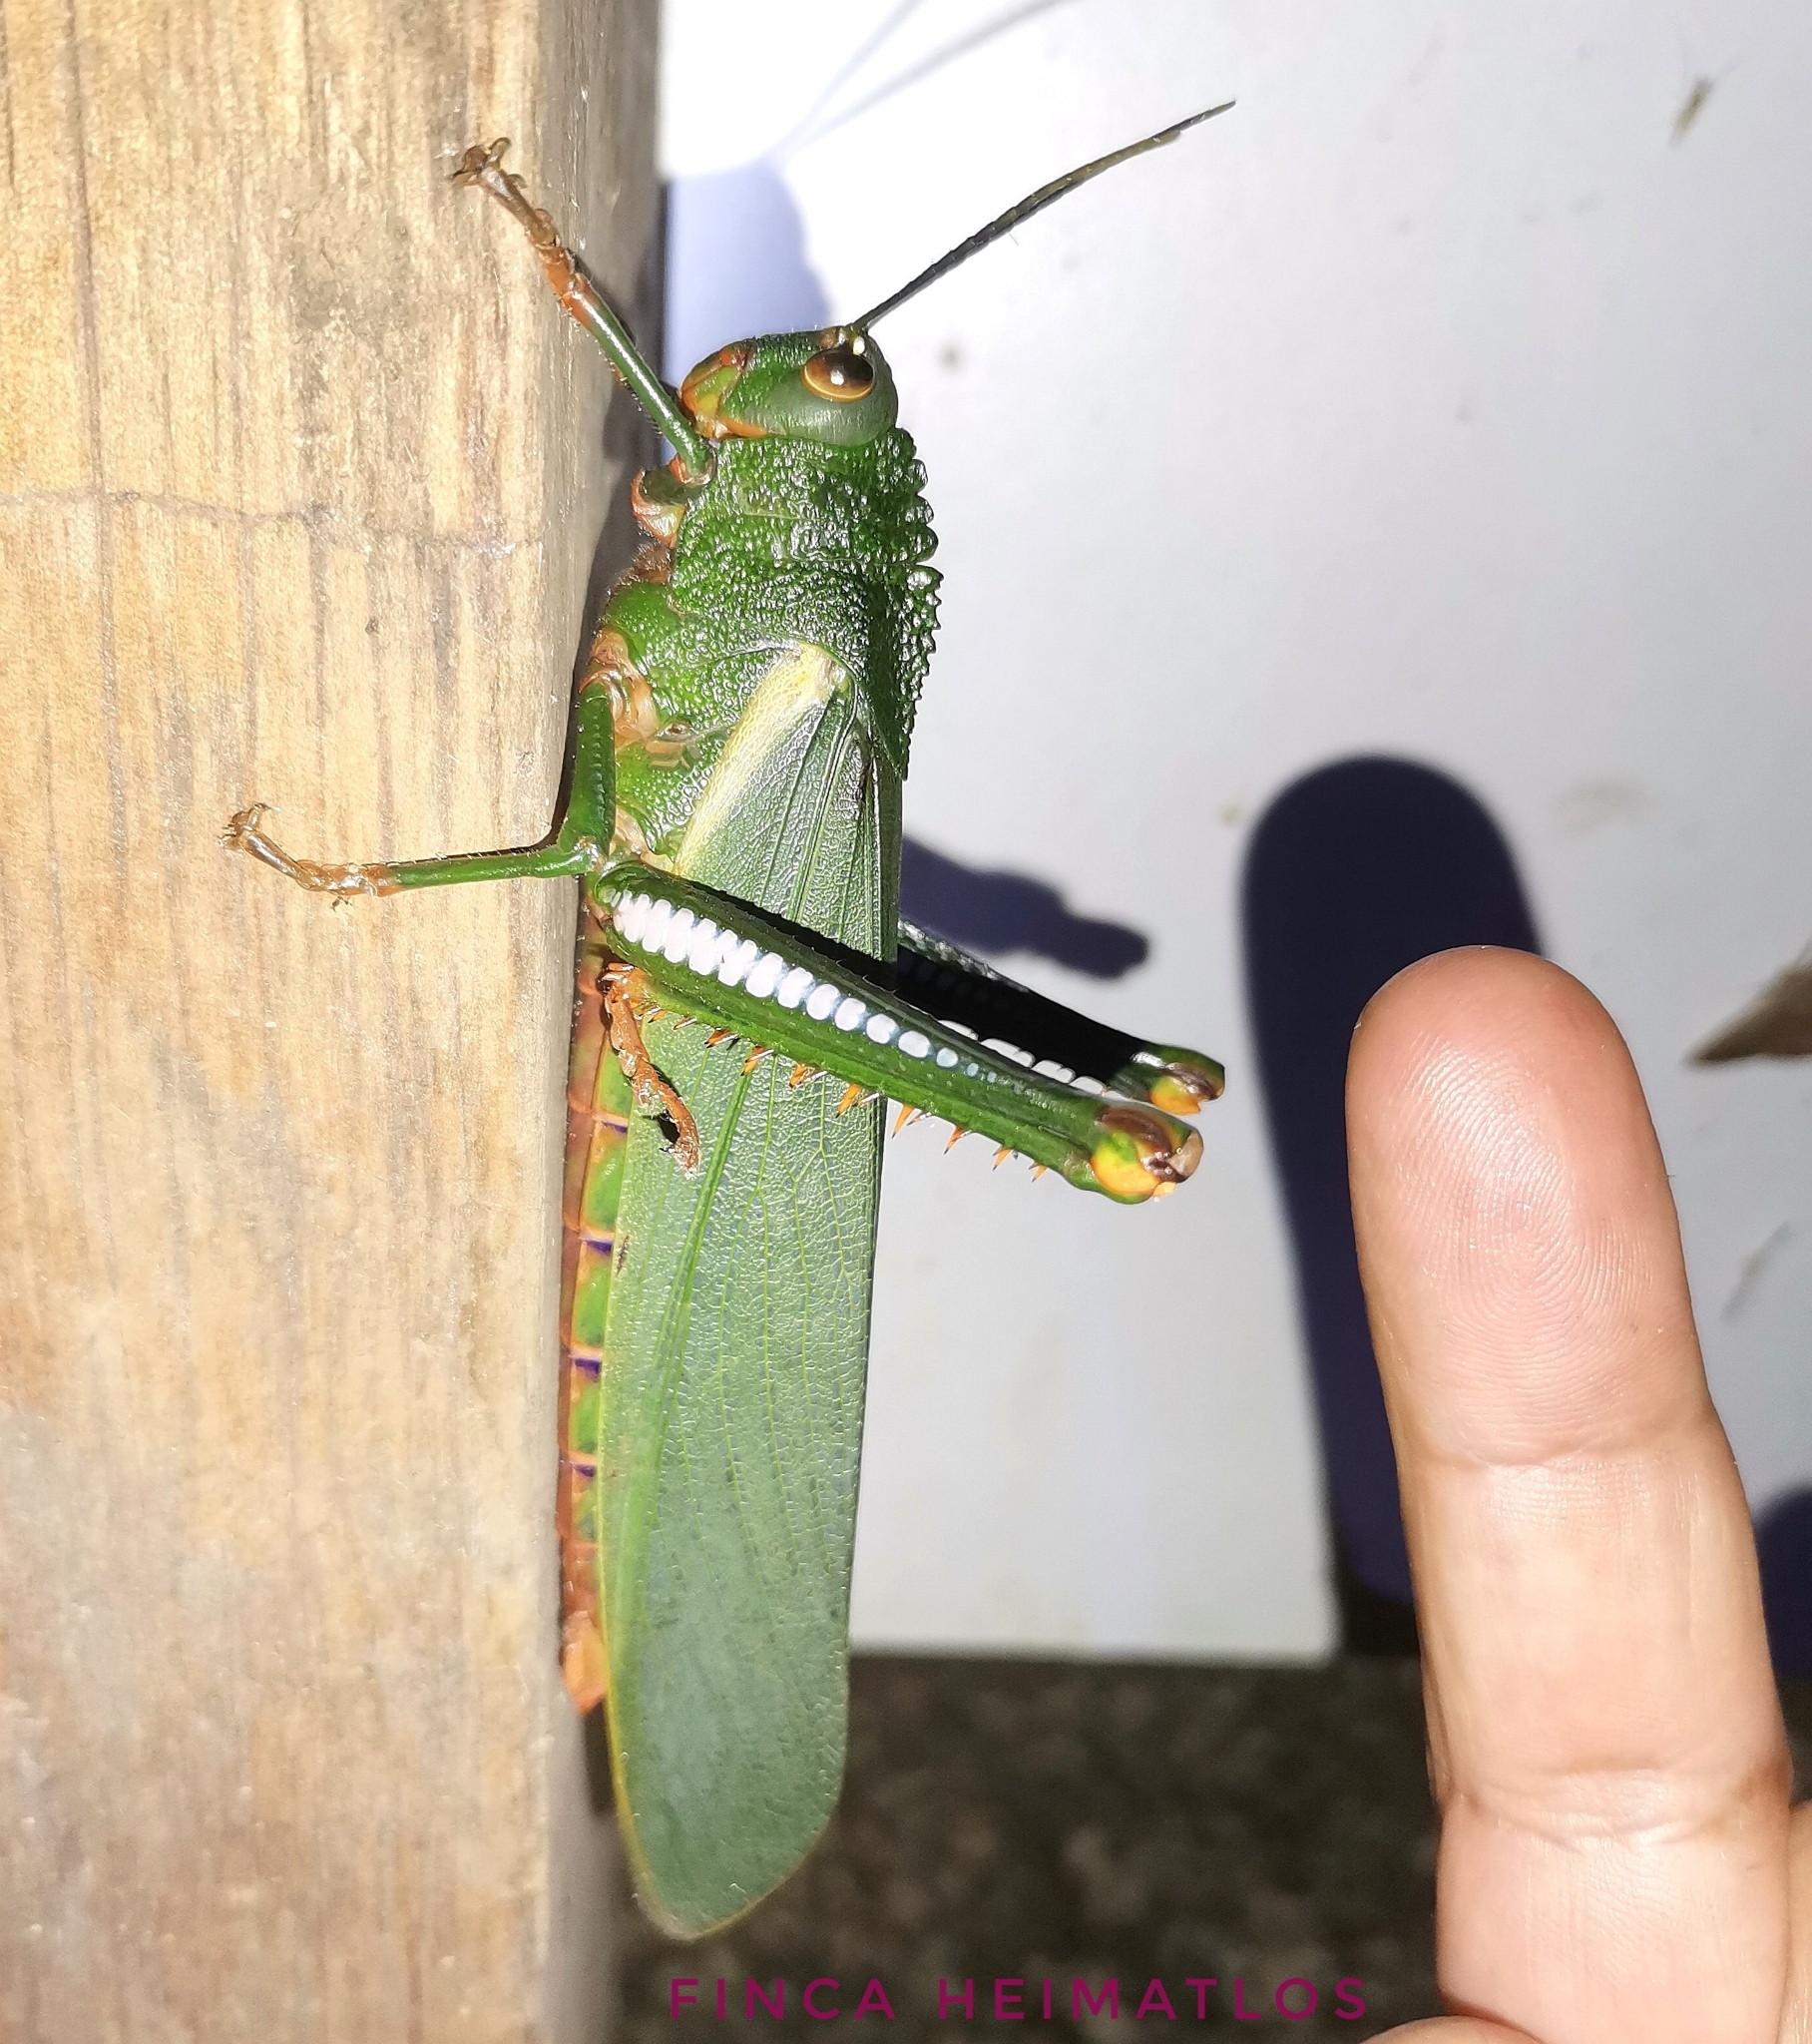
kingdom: Animalia
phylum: Arthropoda
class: Insecta
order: Orthoptera
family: Romaleidae
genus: Titanacris
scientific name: Titanacris albipes
